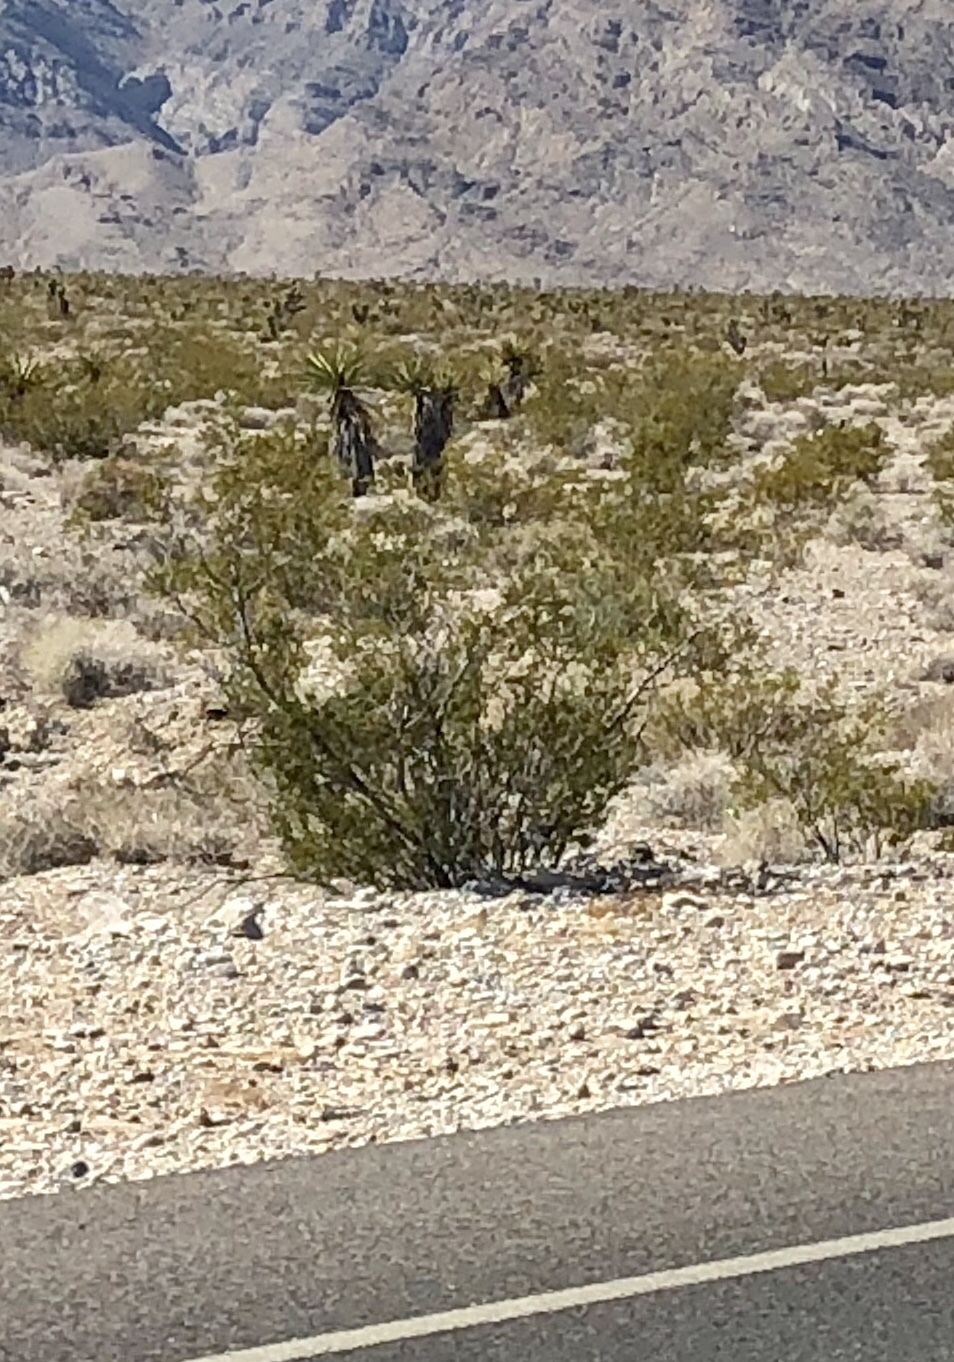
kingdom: Plantae
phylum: Tracheophyta
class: Magnoliopsida
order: Zygophyllales
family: Zygophyllaceae
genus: Larrea
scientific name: Larrea tridentata
